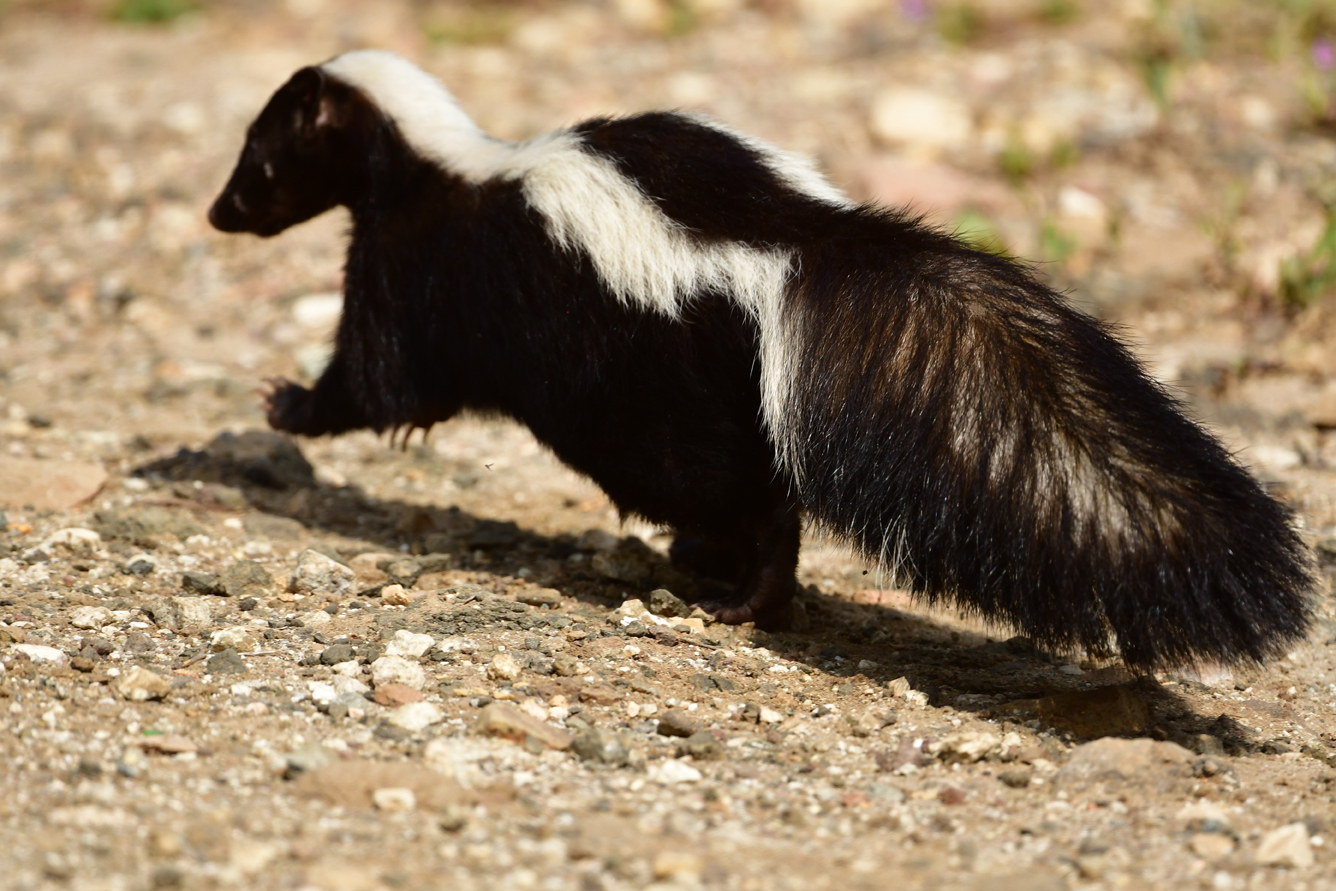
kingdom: Animalia
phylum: Chordata
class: Mammalia
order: Carnivora
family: Mephitidae
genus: Mephitis
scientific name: Mephitis mephitis
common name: Striped skunk
